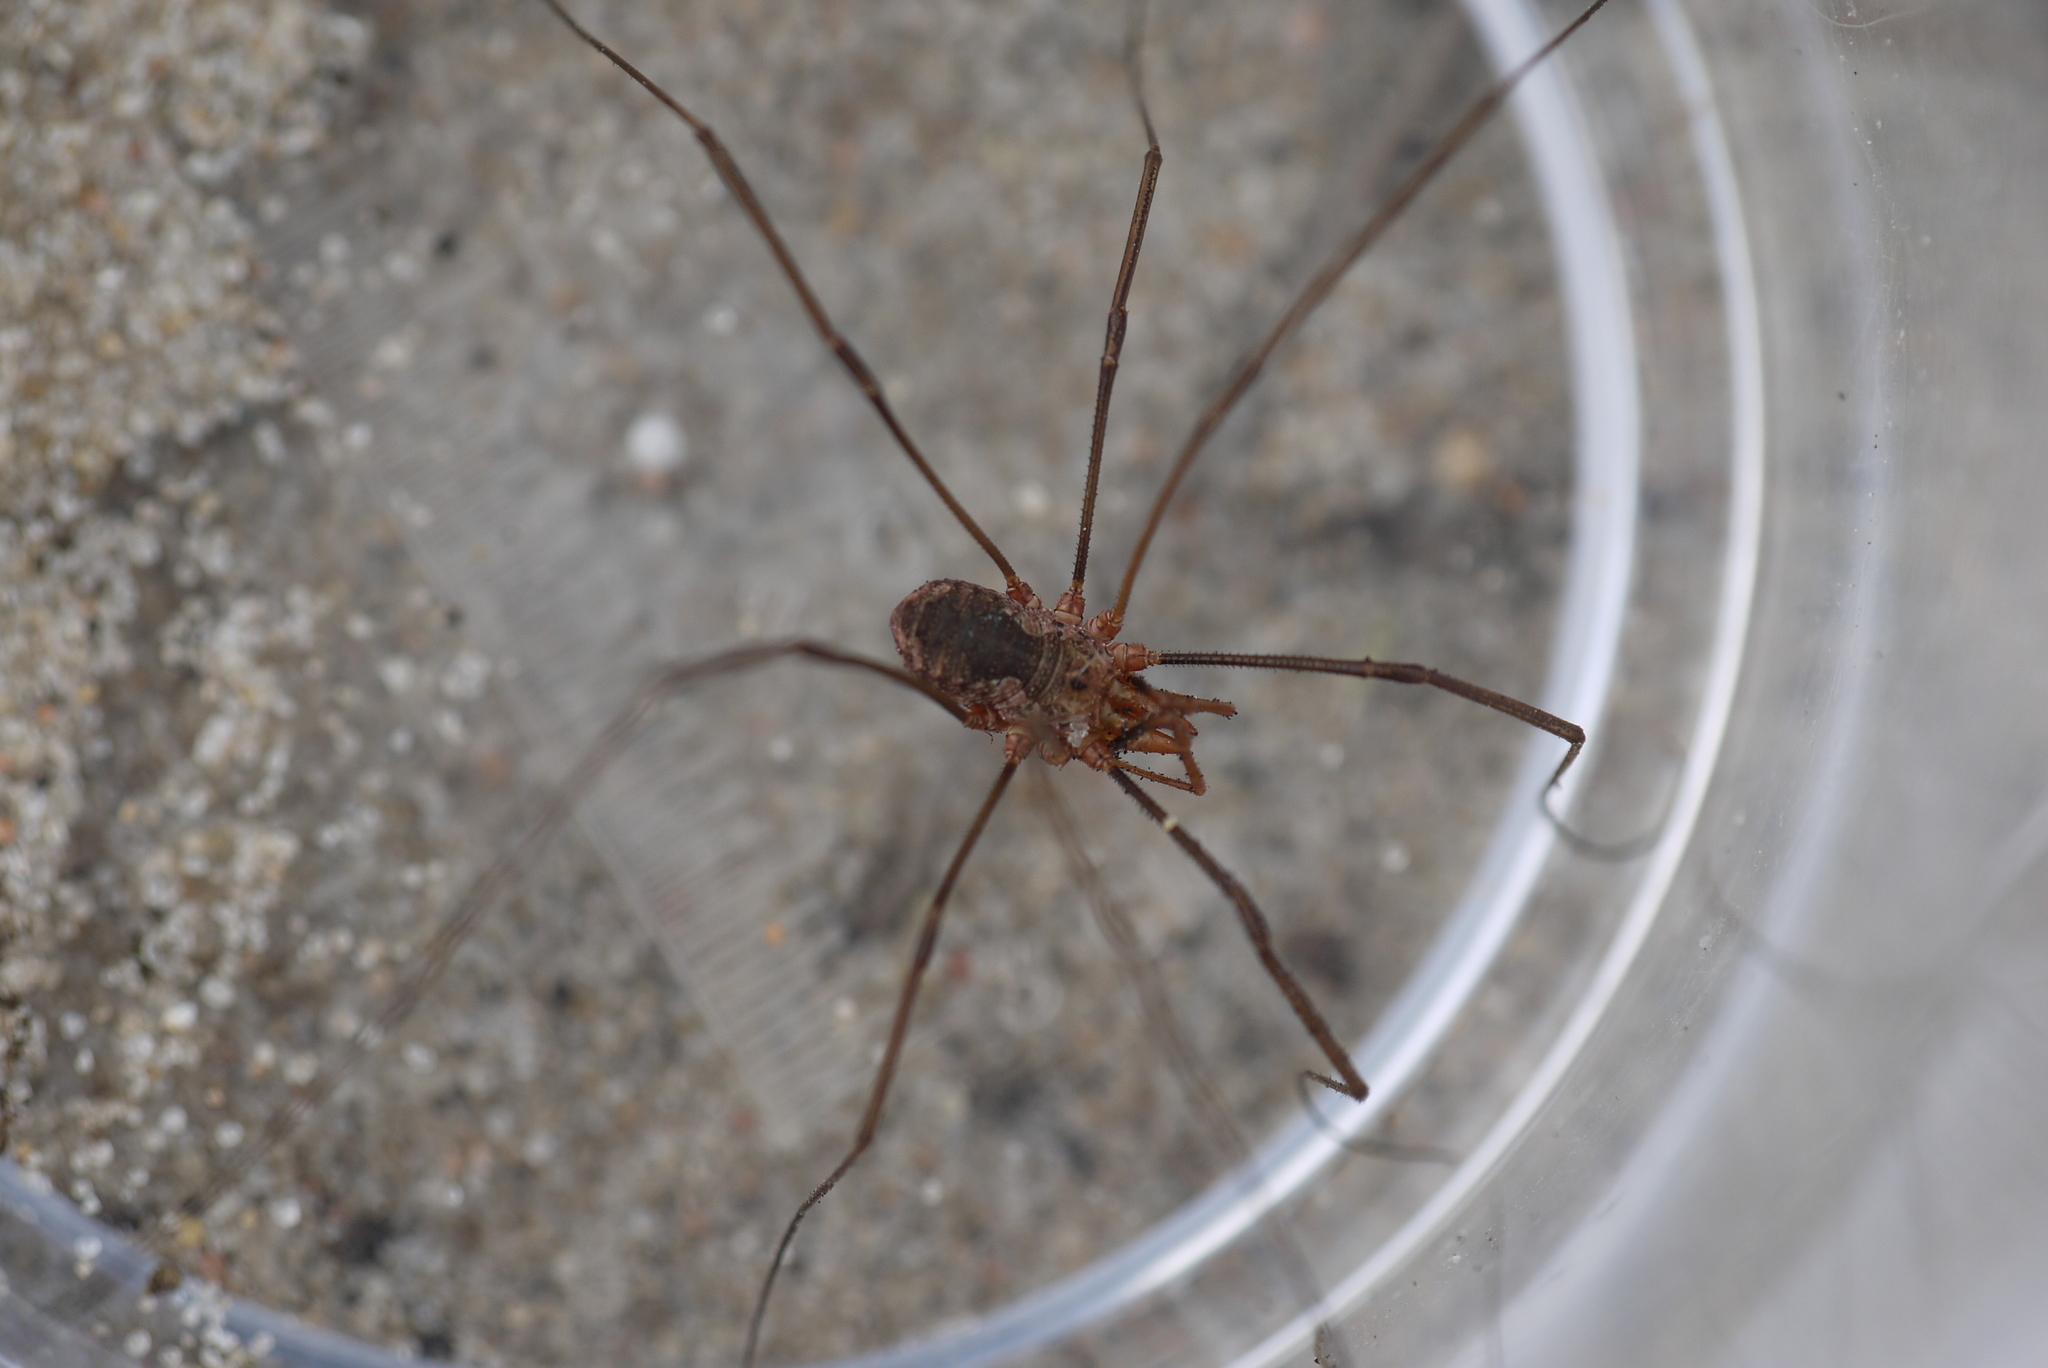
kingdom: Animalia
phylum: Arthropoda
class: Arachnida
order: Opiliones
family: Phalangiidae
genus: Phalangium
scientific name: Phalangium opilio
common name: Daddy longleg
